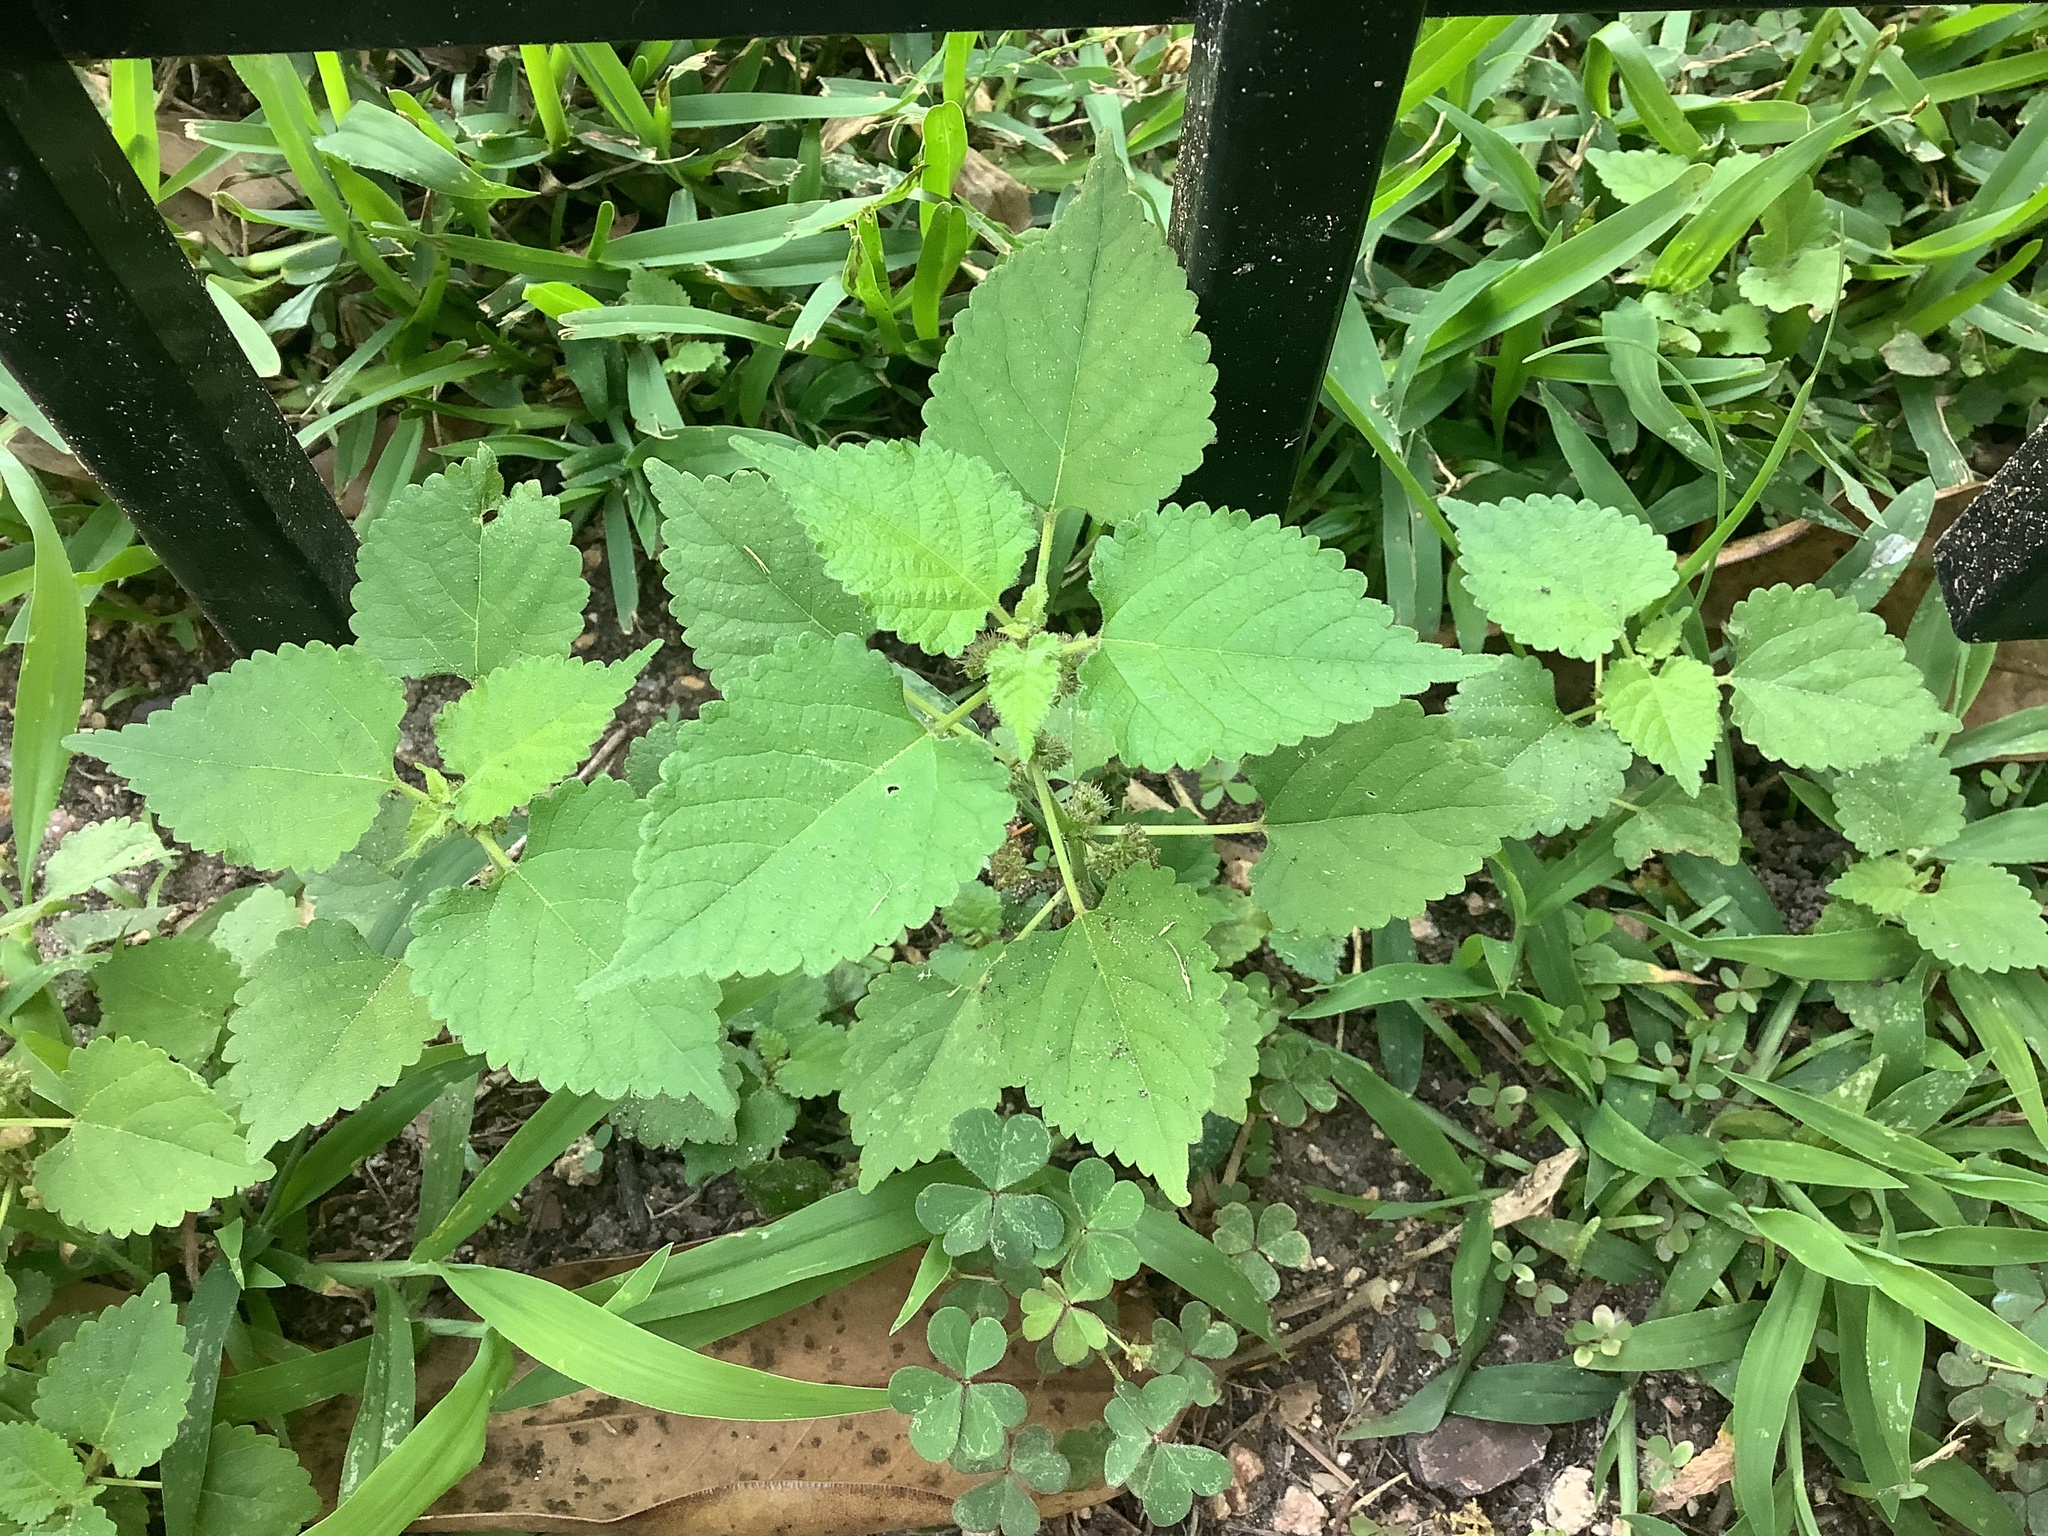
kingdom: Plantae
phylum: Tracheophyta
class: Magnoliopsida
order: Rosales
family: Moraceae
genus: Fatoua
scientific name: Fatoua villosa
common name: Hairy crabweed
